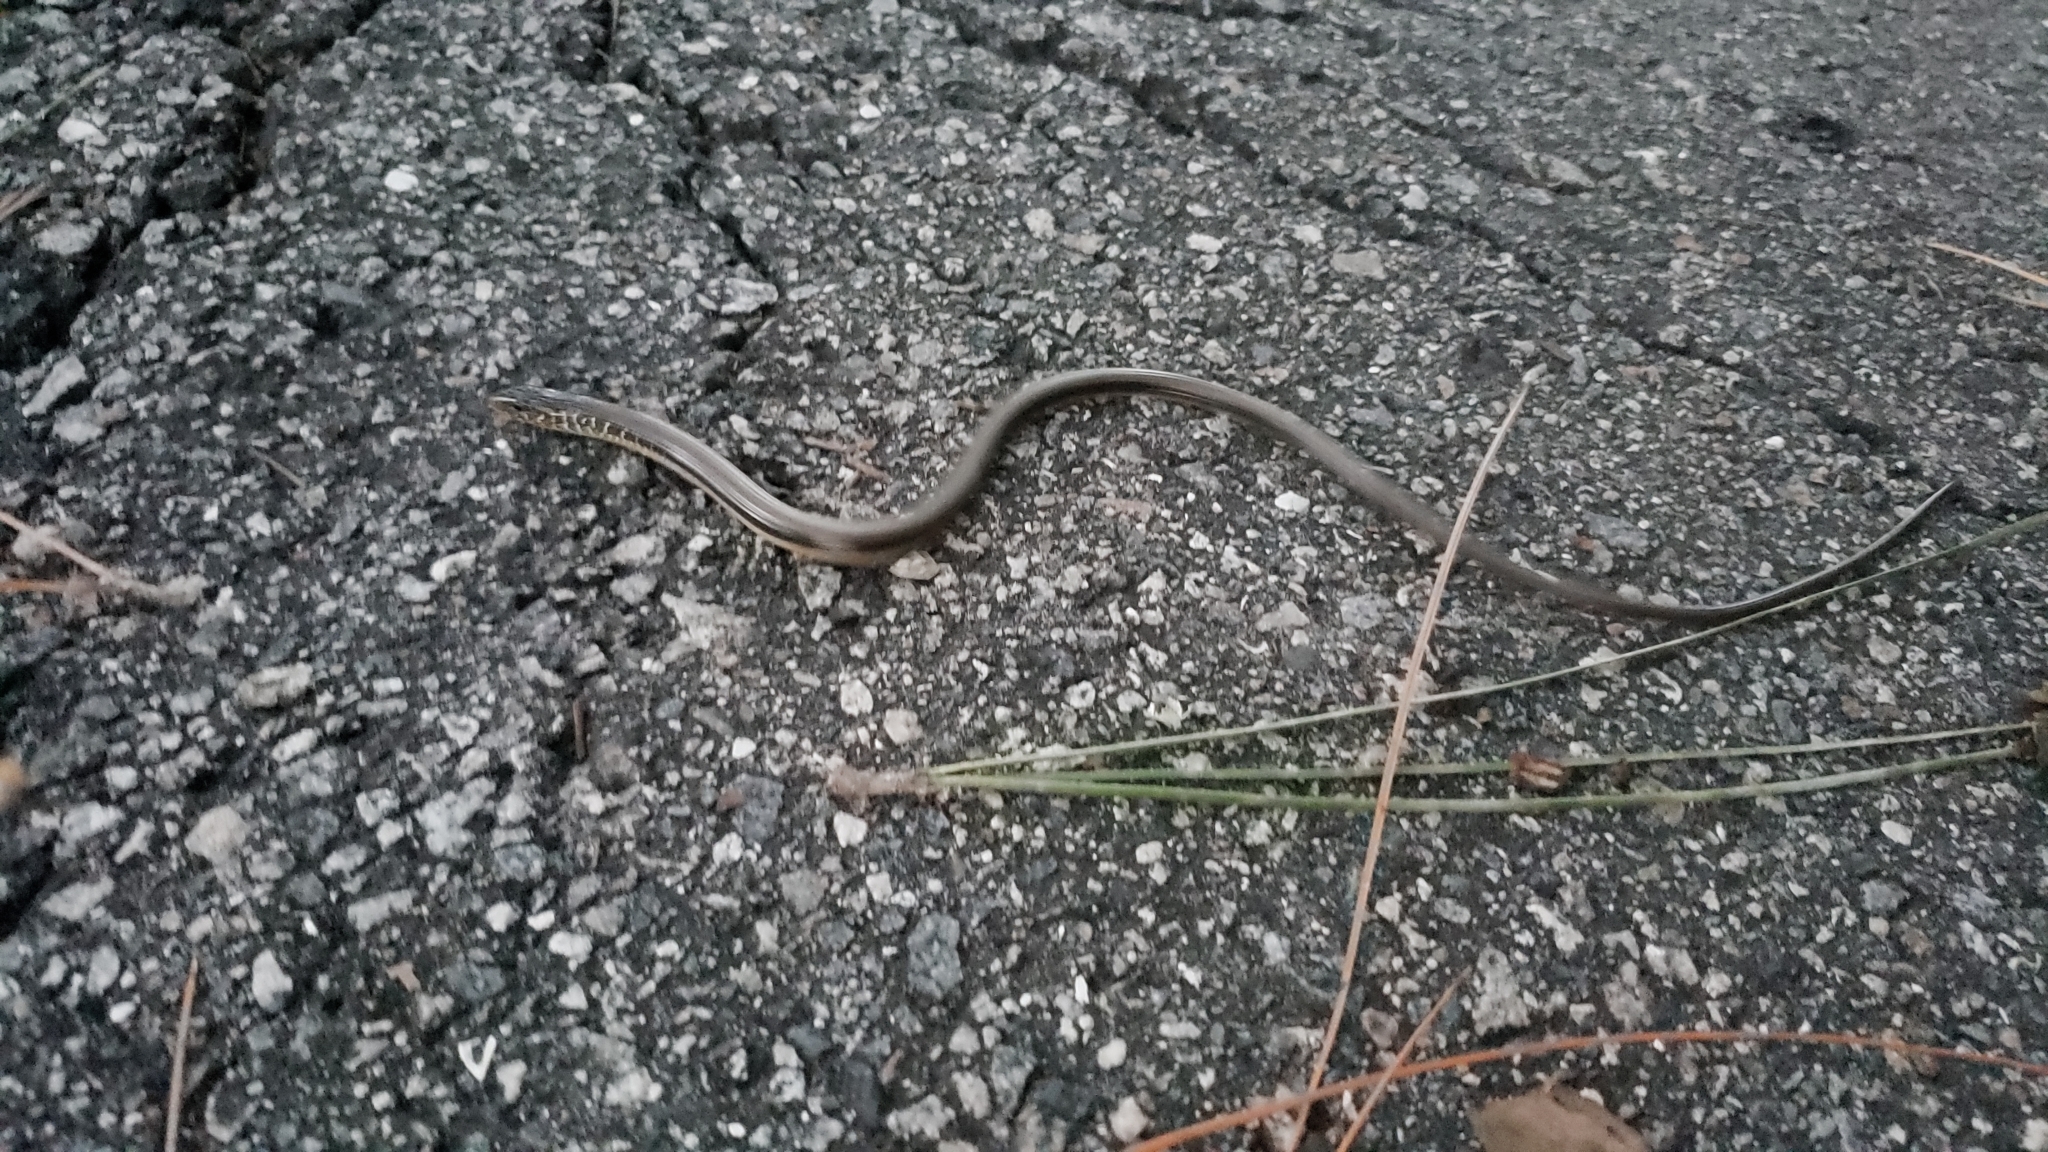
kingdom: Animalia
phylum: Chordata
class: Squamata
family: Anguidae
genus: Ophisaurus
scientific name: Ophisaurus ventralis
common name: Eastern glass lizard
